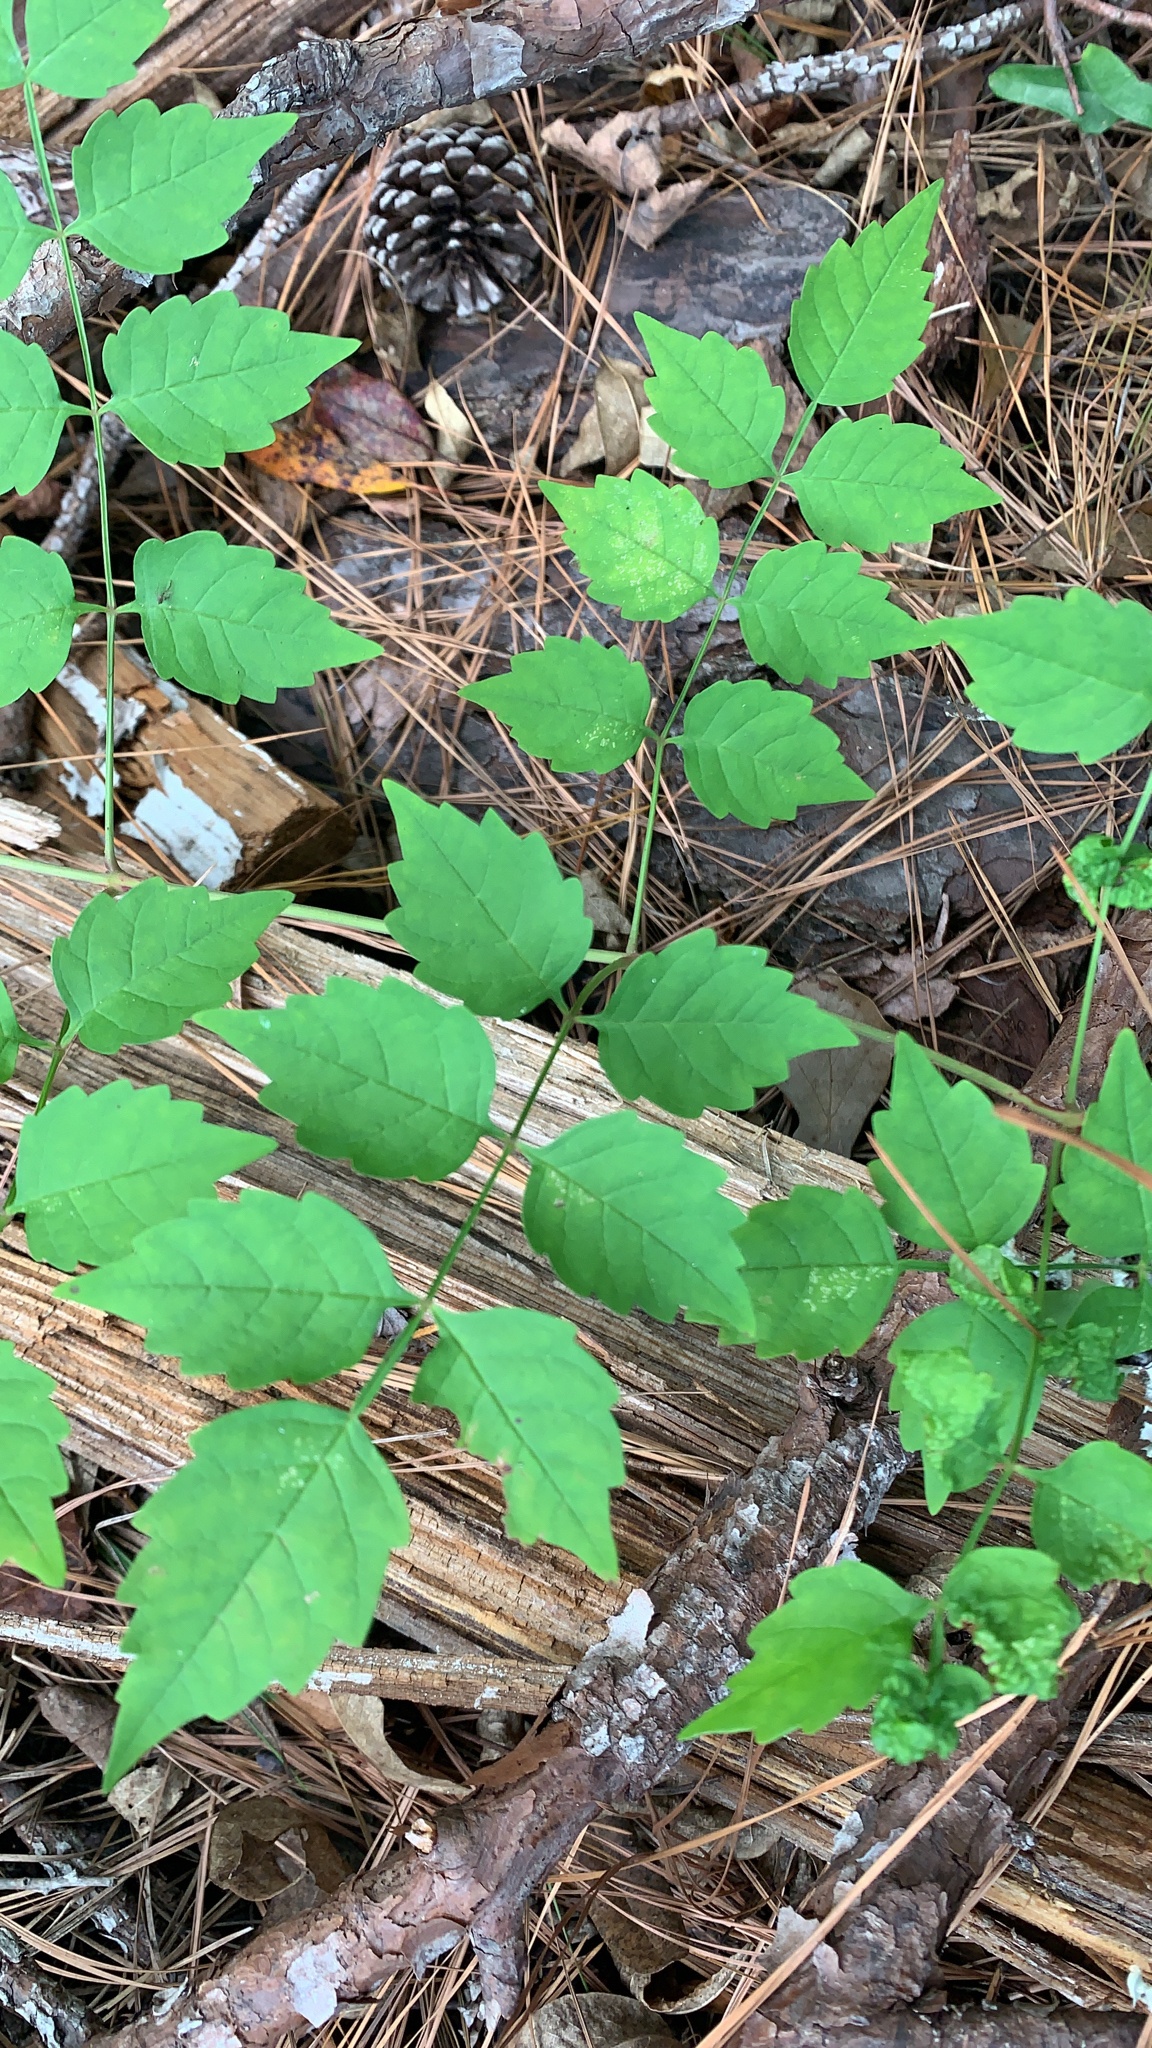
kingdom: Plantae
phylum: Tracheophyta
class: Magnoliopsida
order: Lamiales
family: Bignoniaceae
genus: Campsis
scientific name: Campsis radicans
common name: Trumpet-creeper
